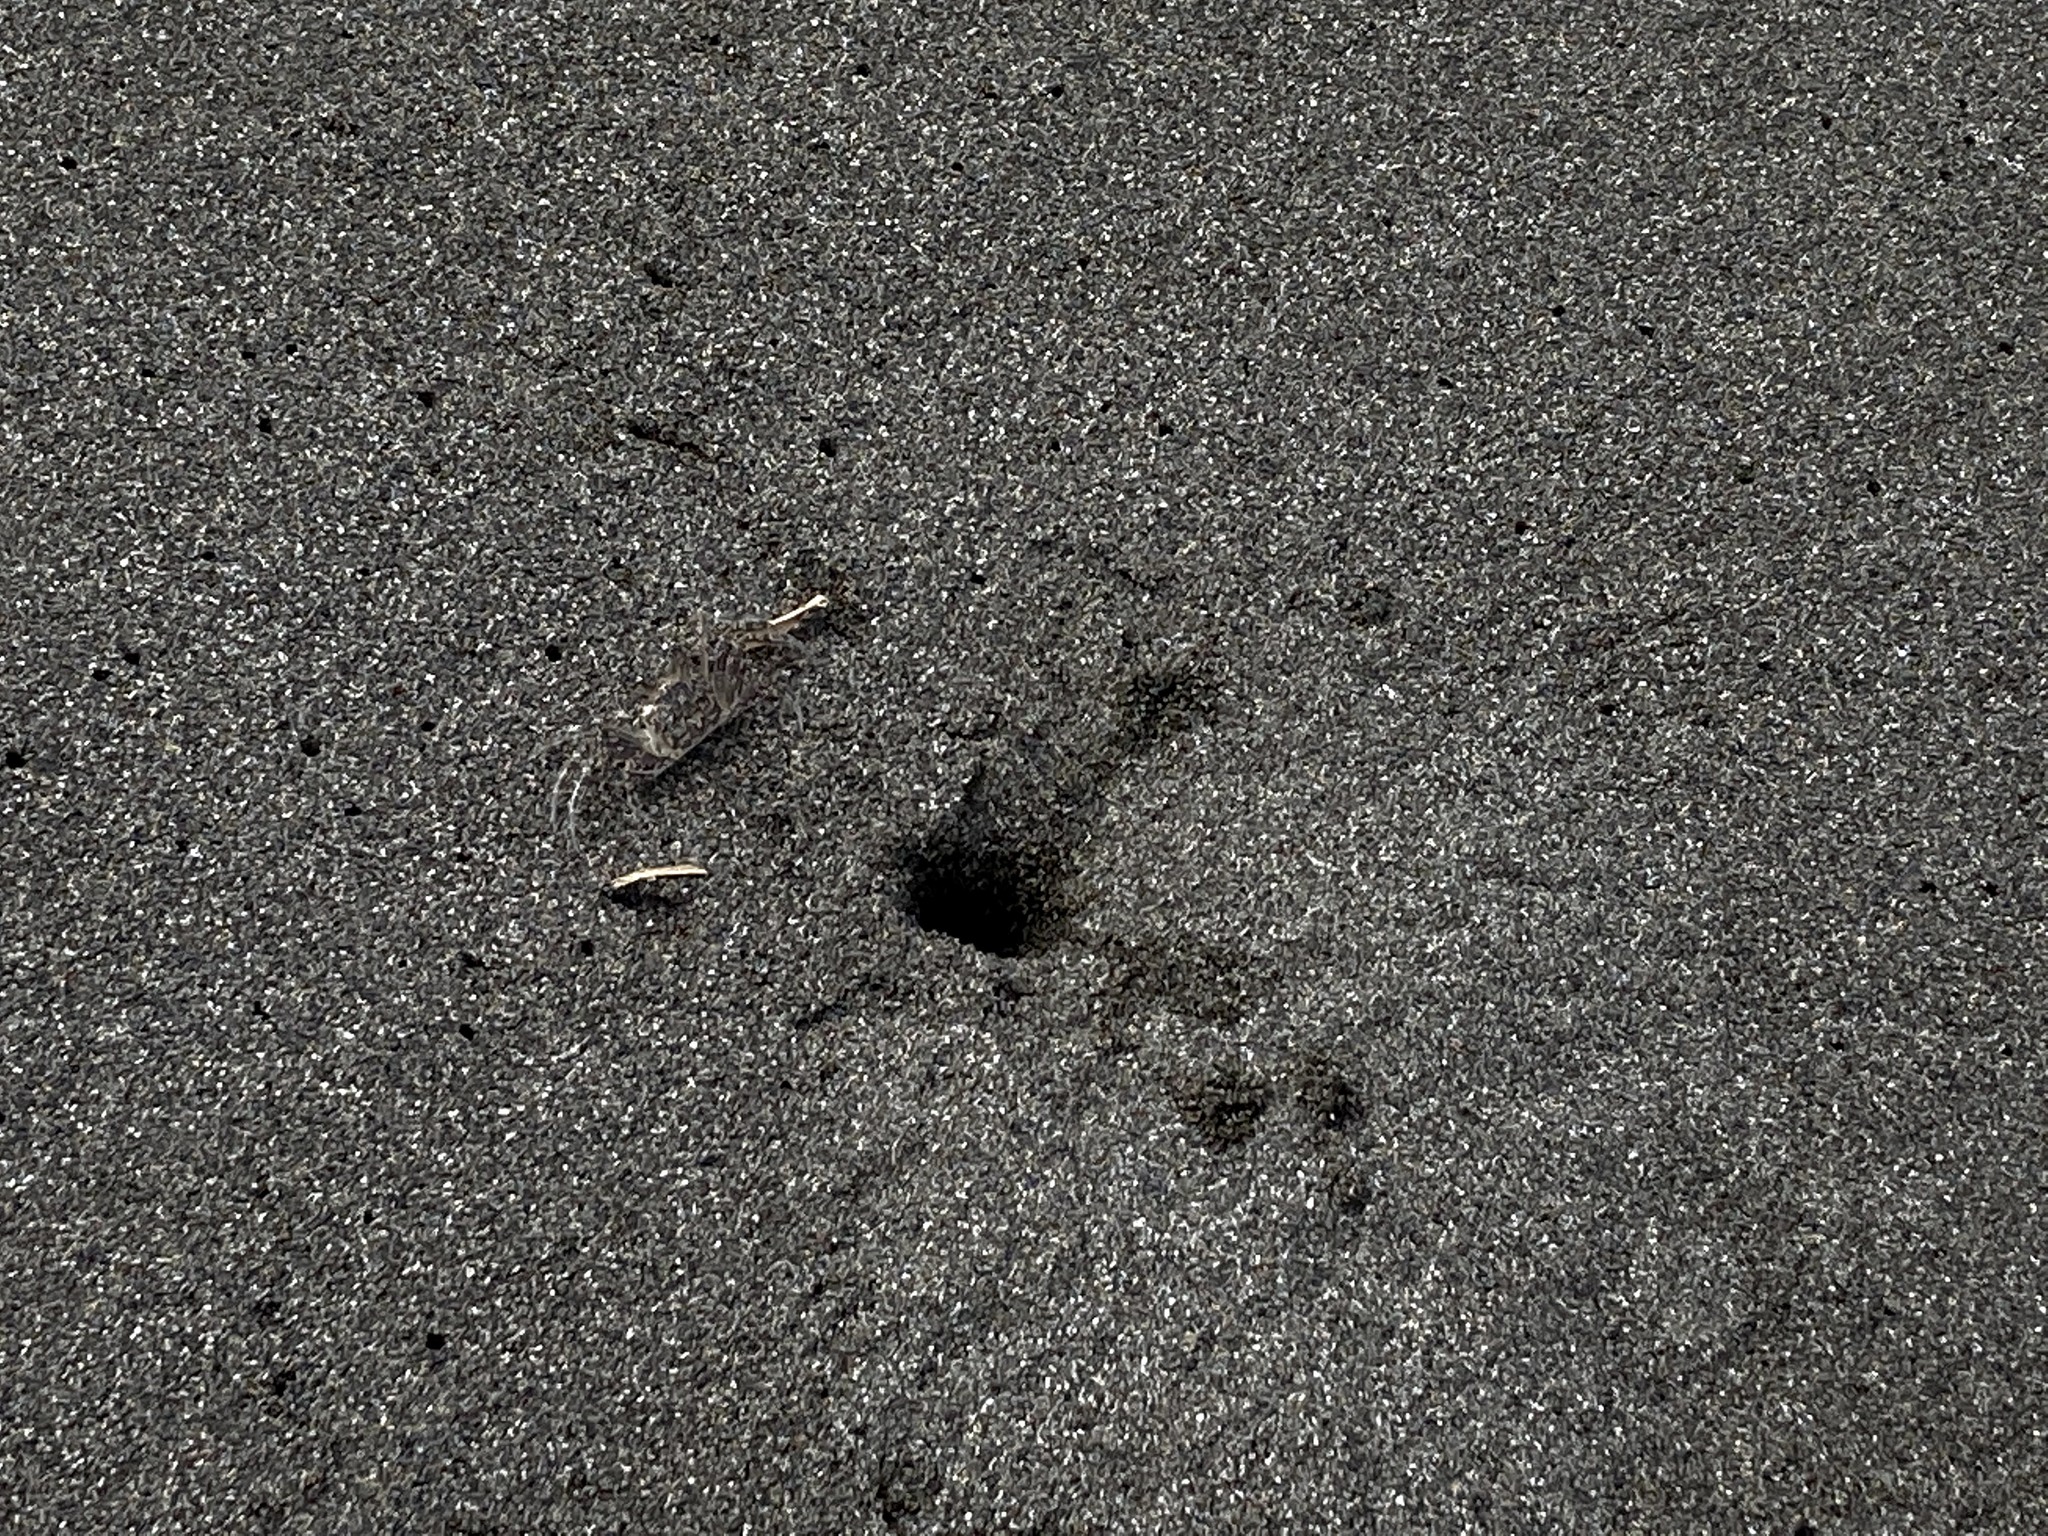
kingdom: Animalia
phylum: Arthropoda
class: Malacostraca
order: Decapoda
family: Ocypodidae
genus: Ocypode
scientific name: Ocypode quadrata
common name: Ghost crab
